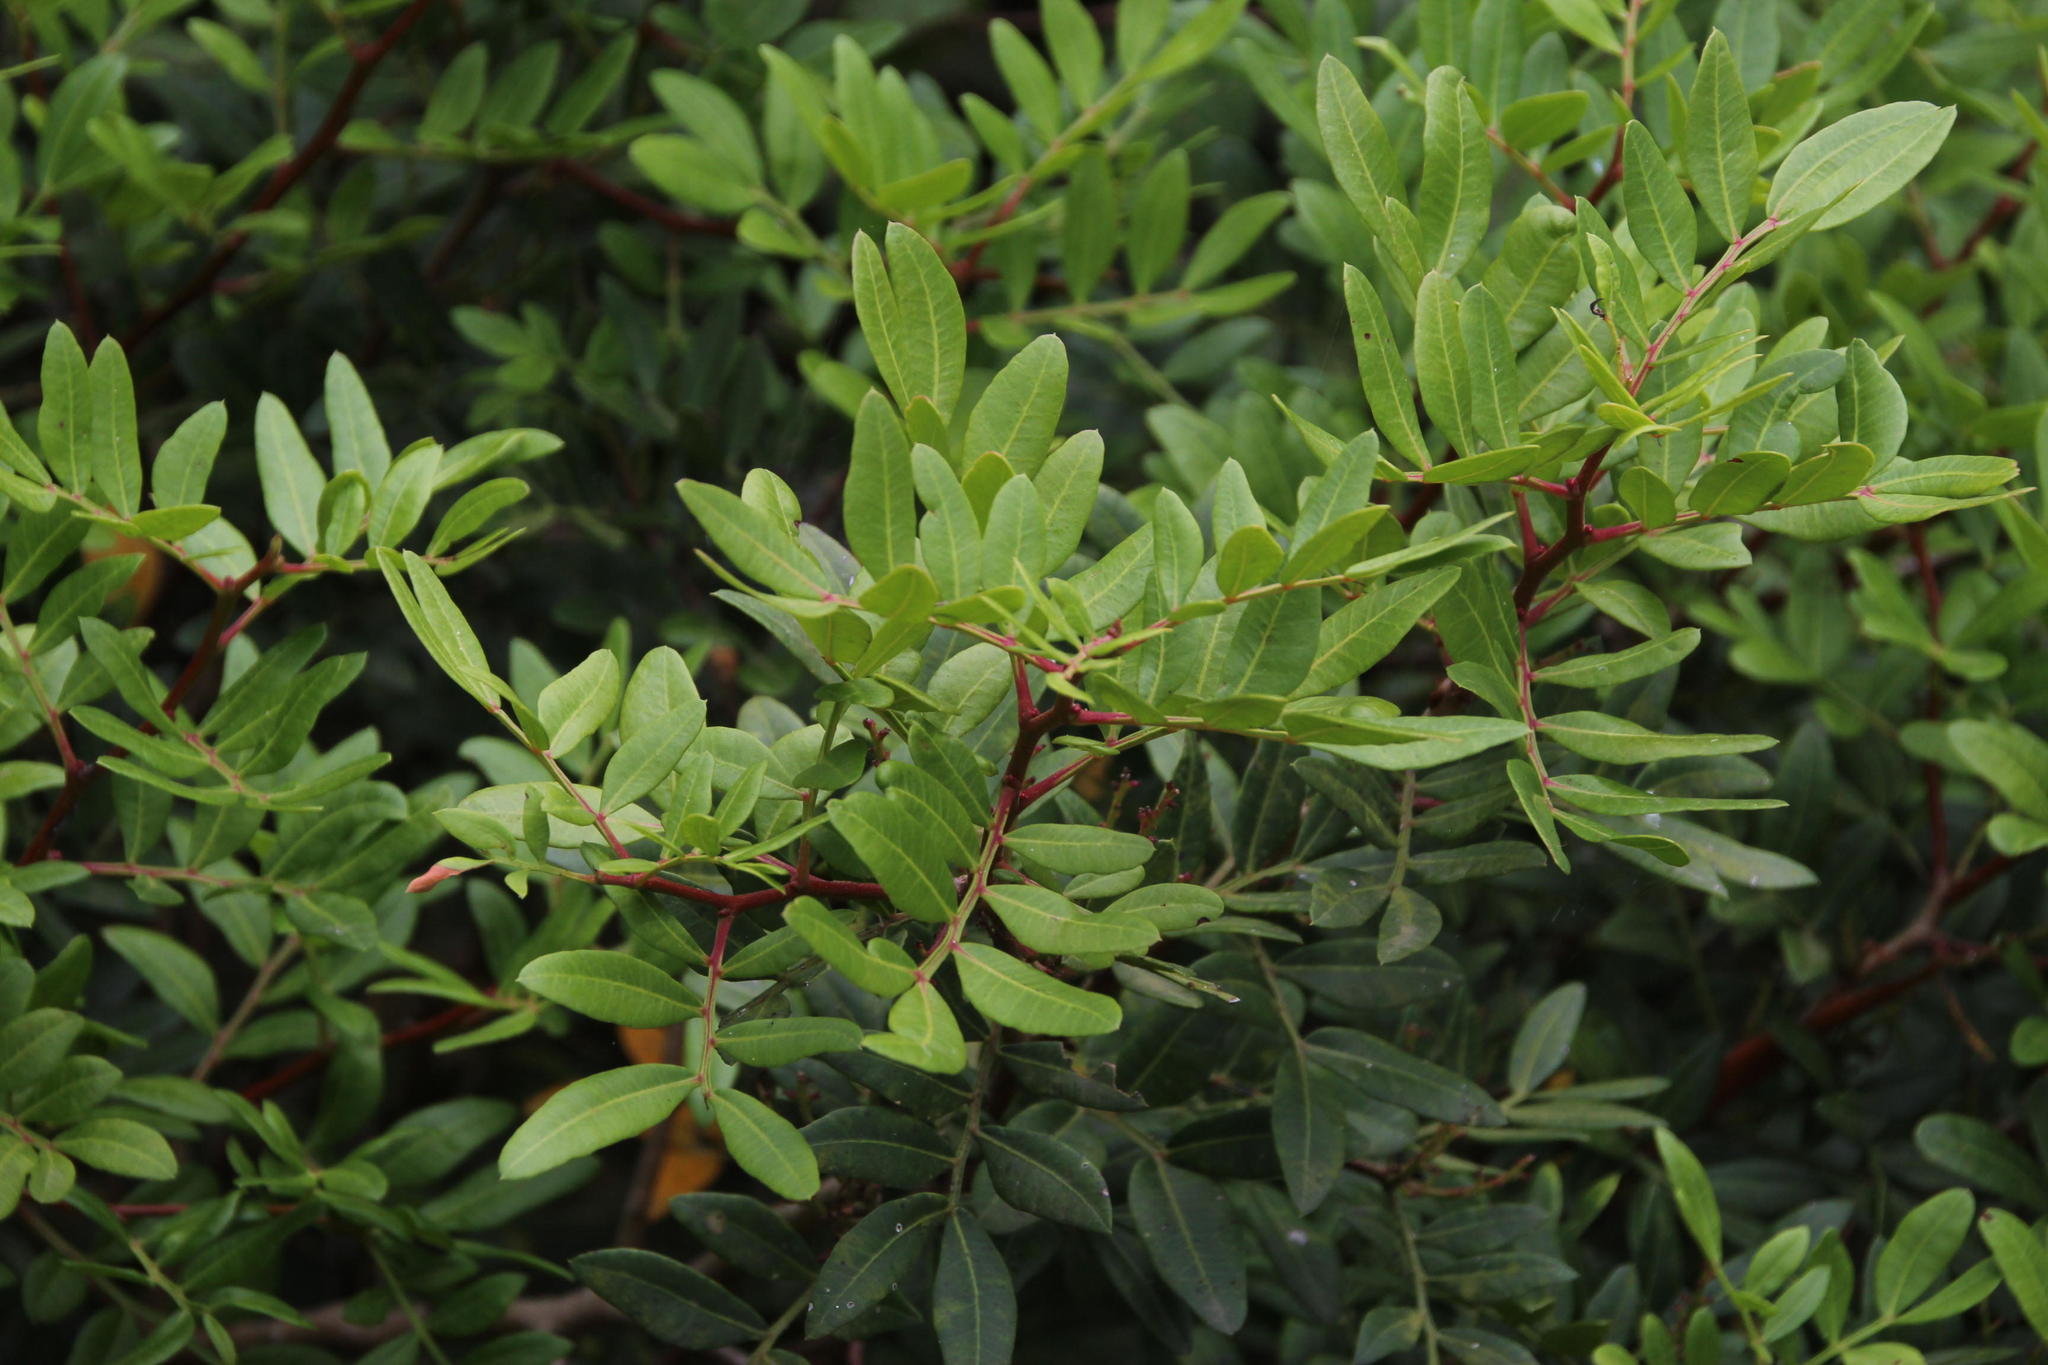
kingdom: Plantae
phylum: Tracheophyta
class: Magnoliopsida
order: Sapindales
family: Anacardiaceae
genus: Pistacia
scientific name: Pistacia lentiscus
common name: Lentisk
